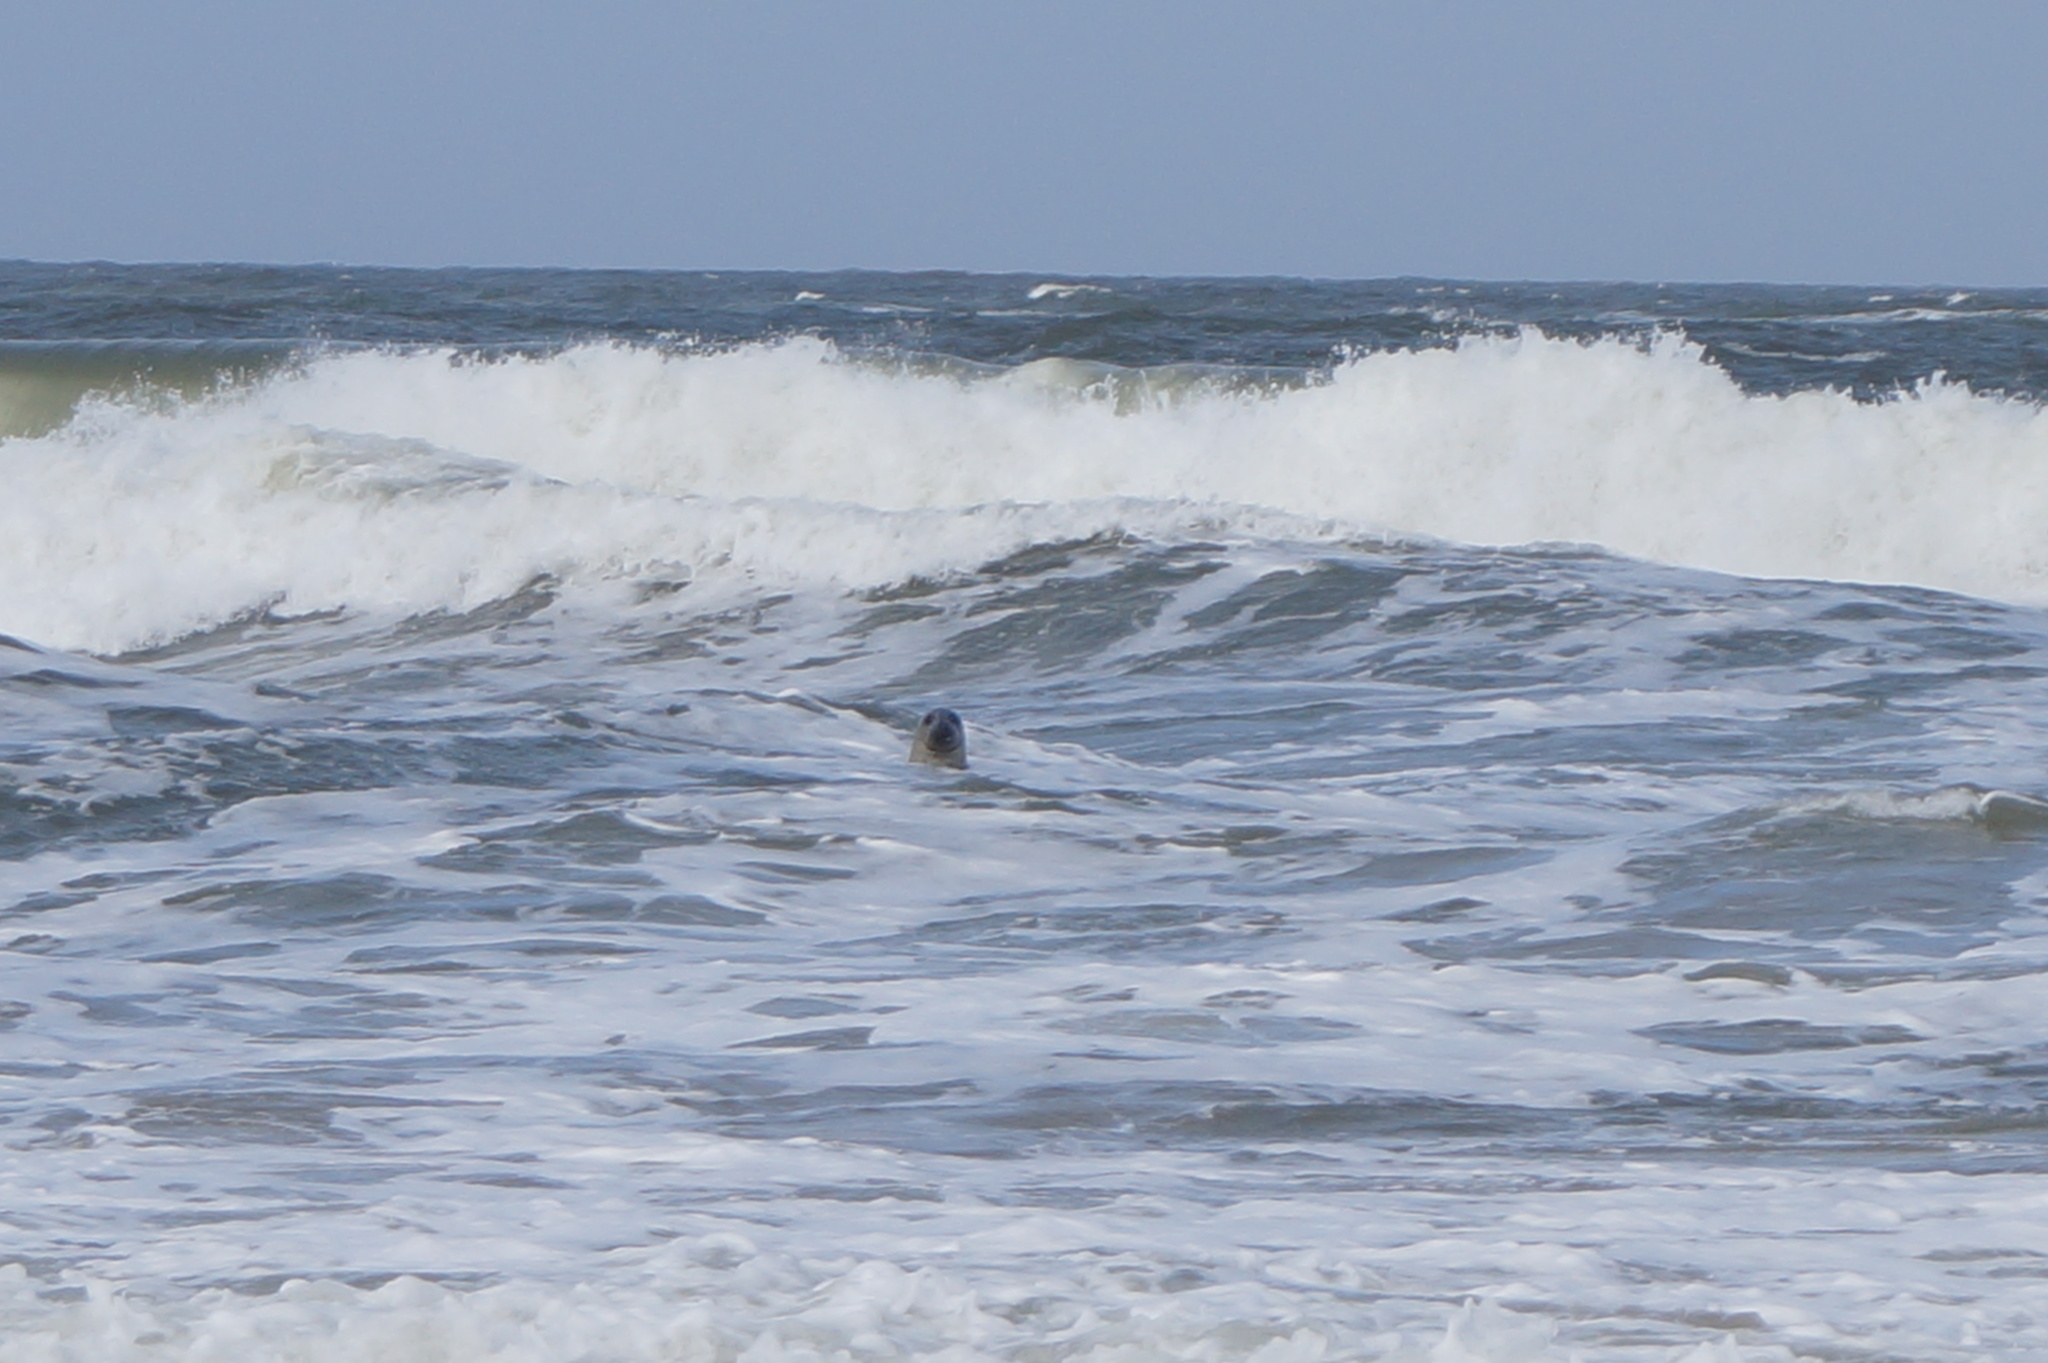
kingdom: Animalia
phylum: Chordata
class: Mammalia
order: Carnivora
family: Phocidae
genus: Halichoerus
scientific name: Halichoerus grypus
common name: Grey seal
